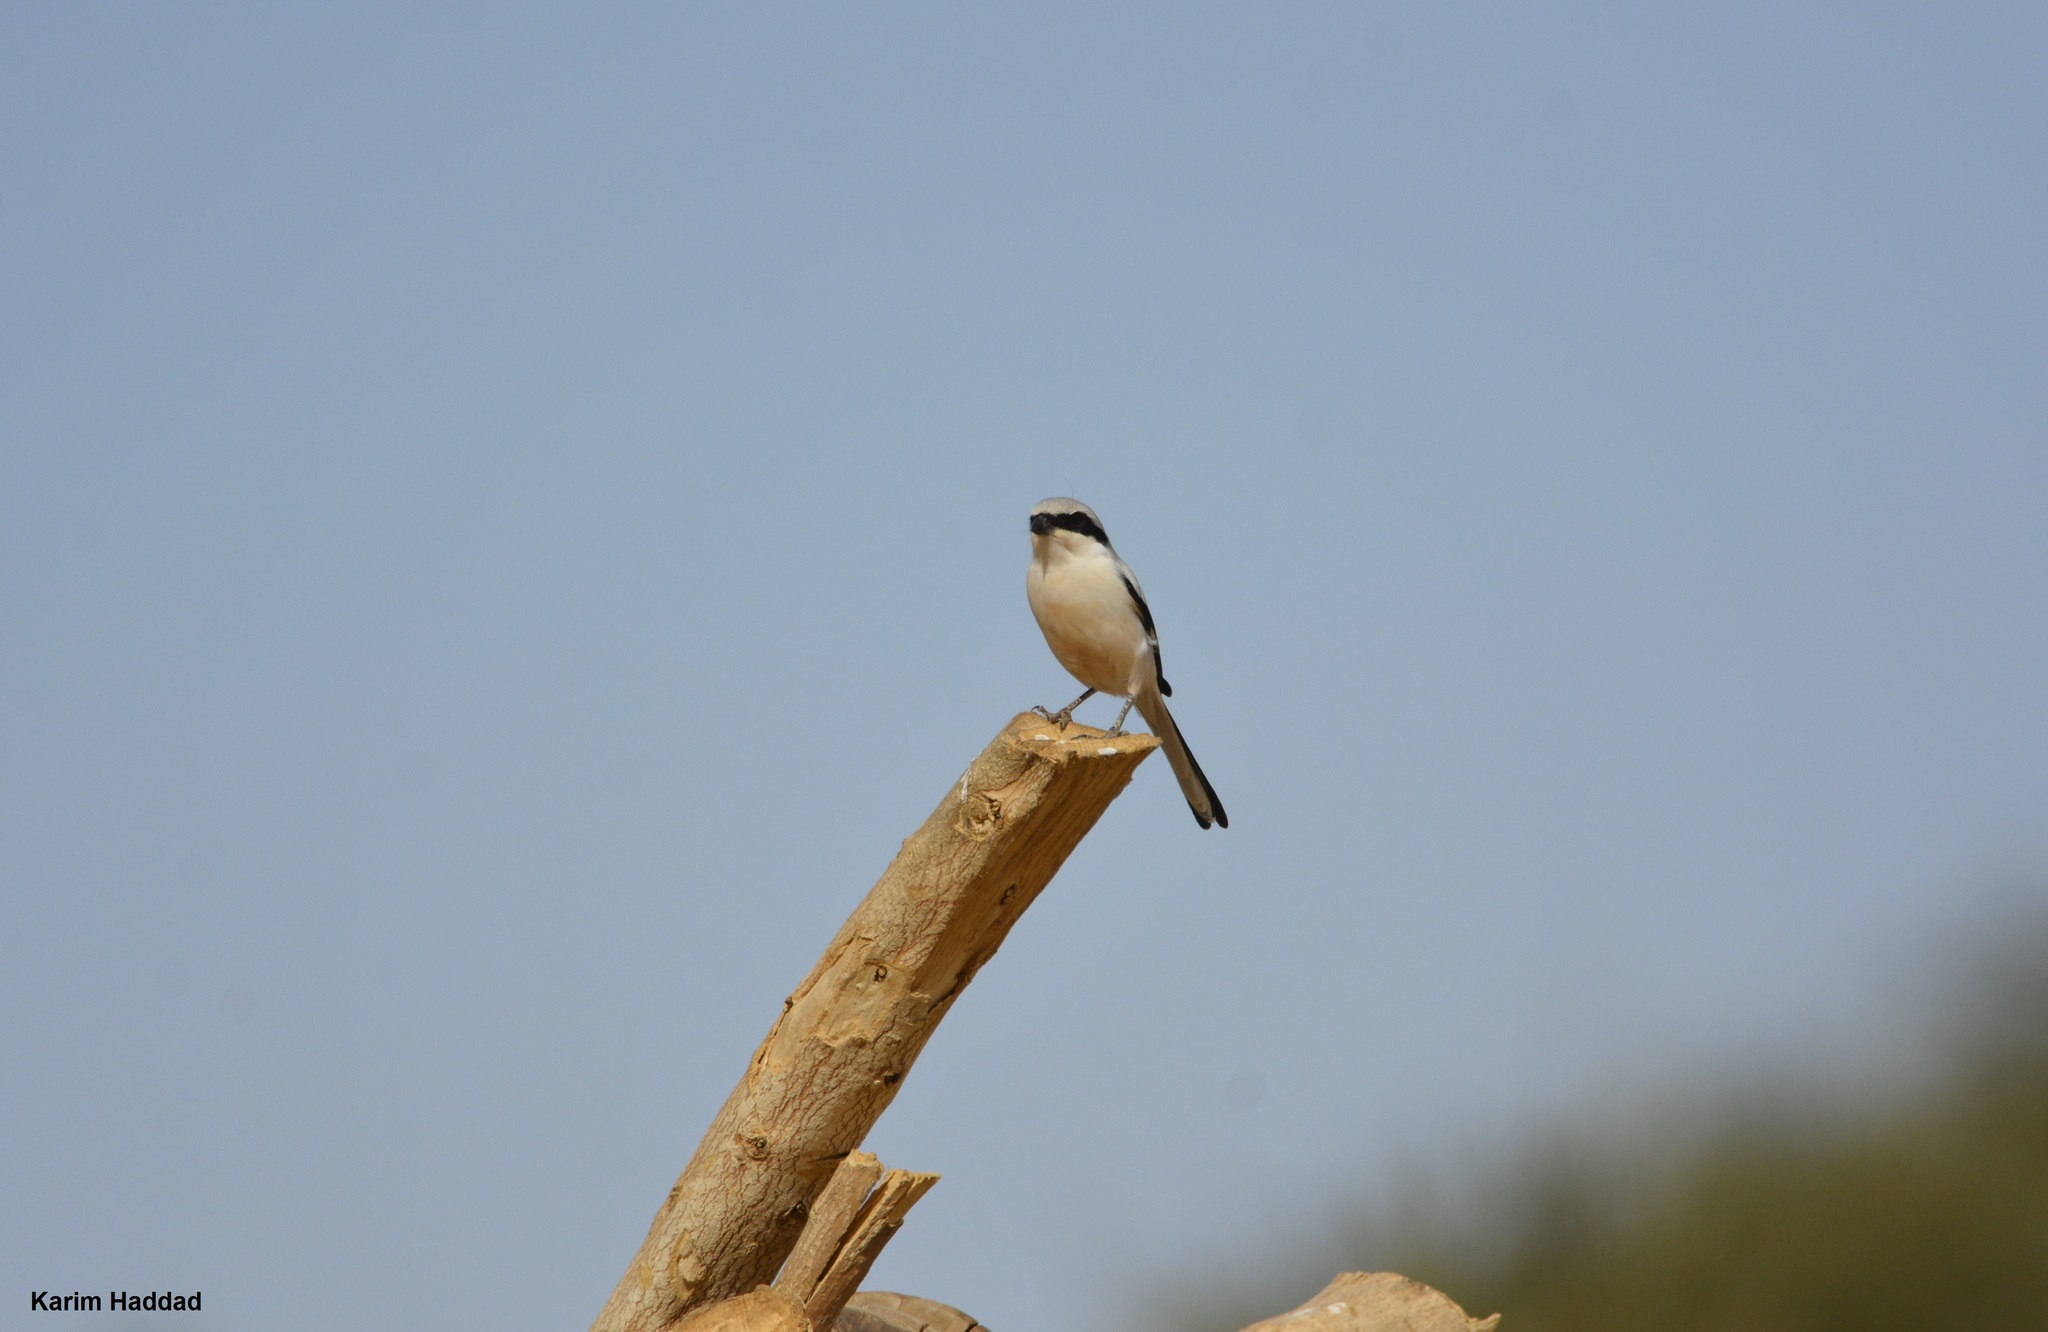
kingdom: Animalia
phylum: Chordata
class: Aves
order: Passeriformes
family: Laniidae
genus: Lanius
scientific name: Lanius excubitor
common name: Great grey shrike
